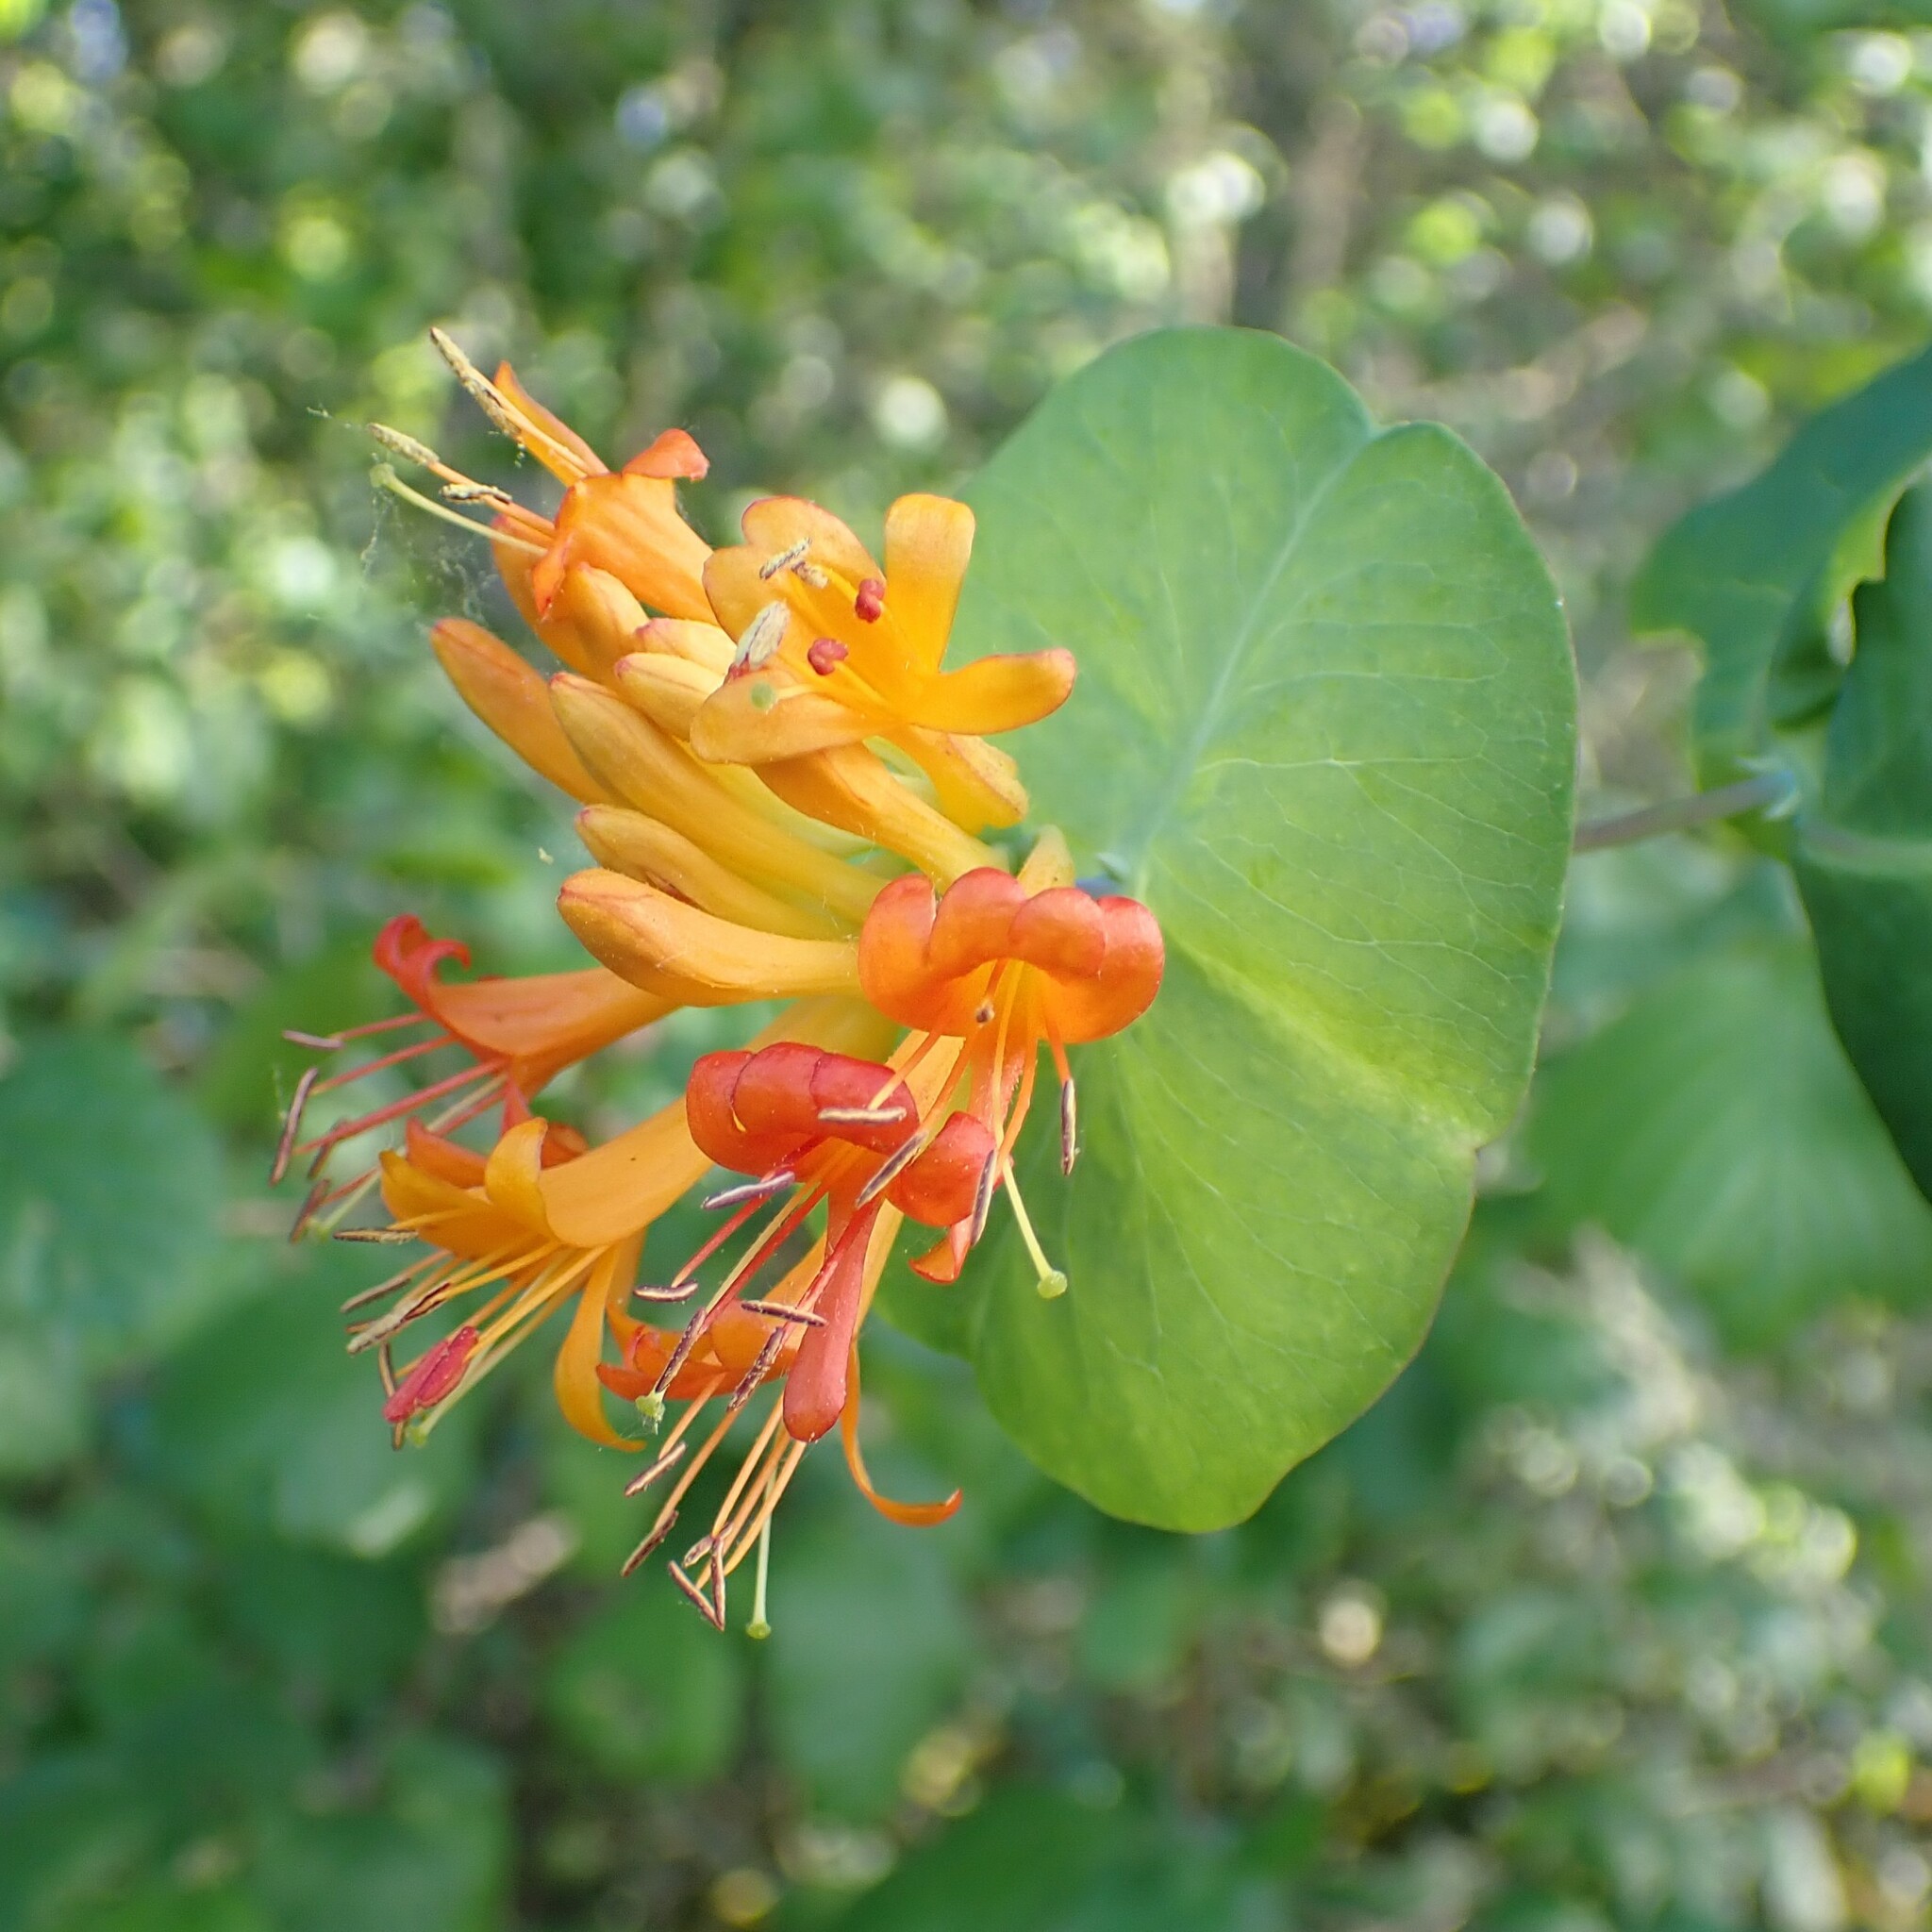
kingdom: Plantae
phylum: Tracheophyta
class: Magnoliopsida
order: Dipsacales
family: Caprifoliaceae
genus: Lonicera
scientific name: Lonicera ciliosa
